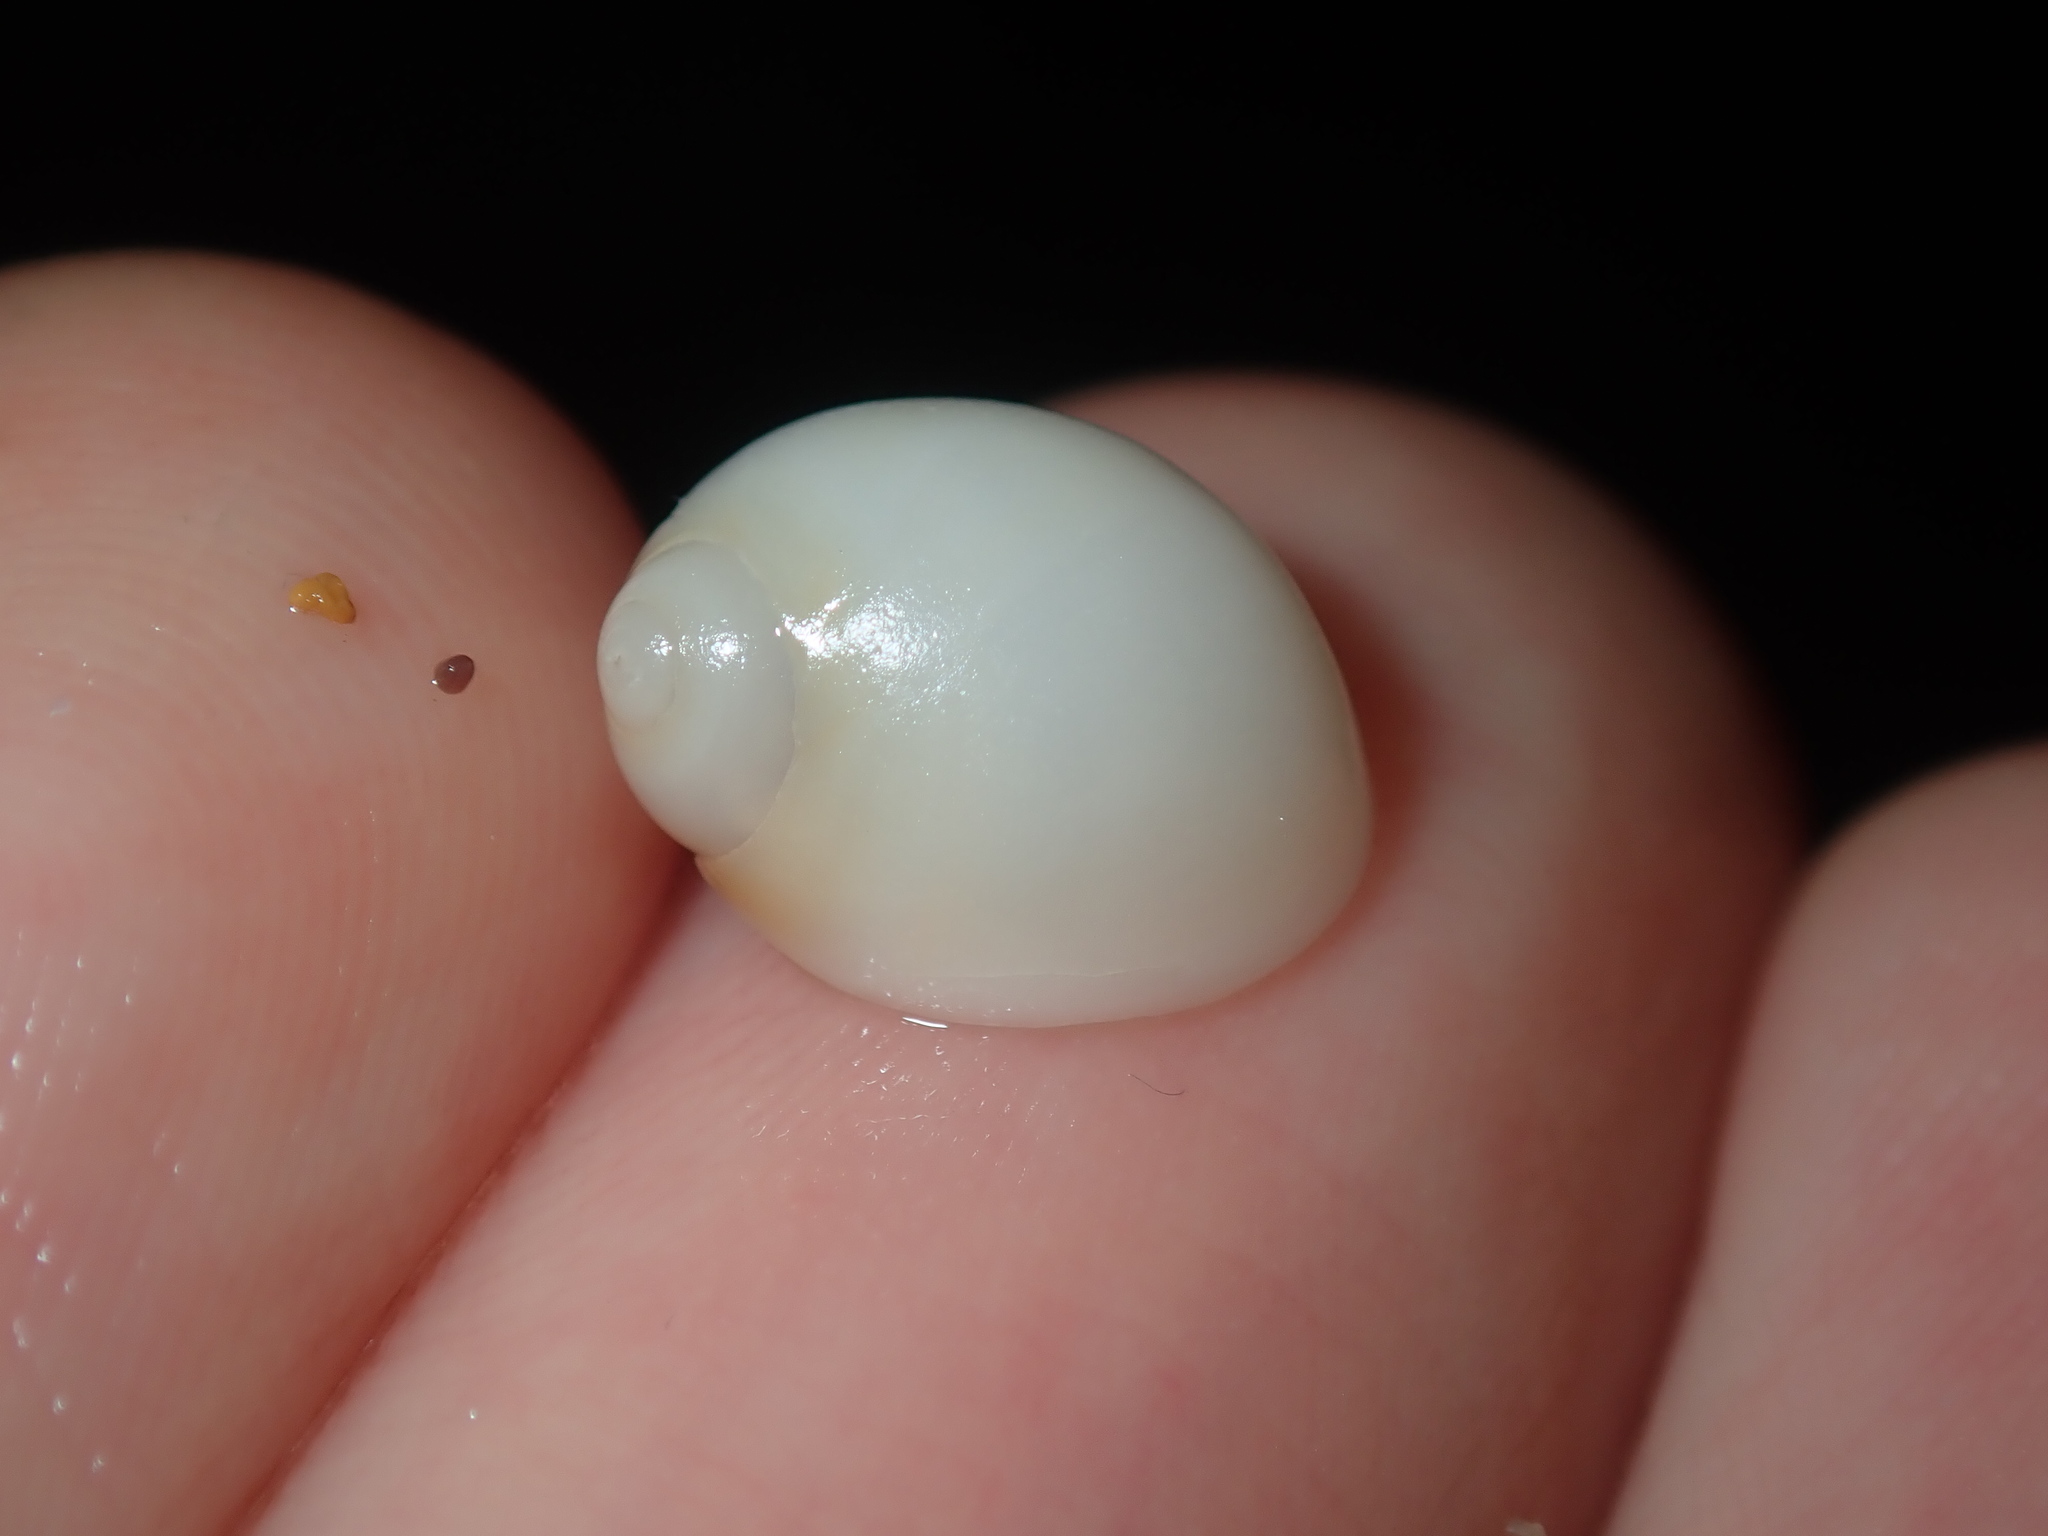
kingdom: Animalia
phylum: Mollusca
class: Gastropoda
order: Littorinimorpha
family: Naticidae
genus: Conuber
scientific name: Conuber conicum
